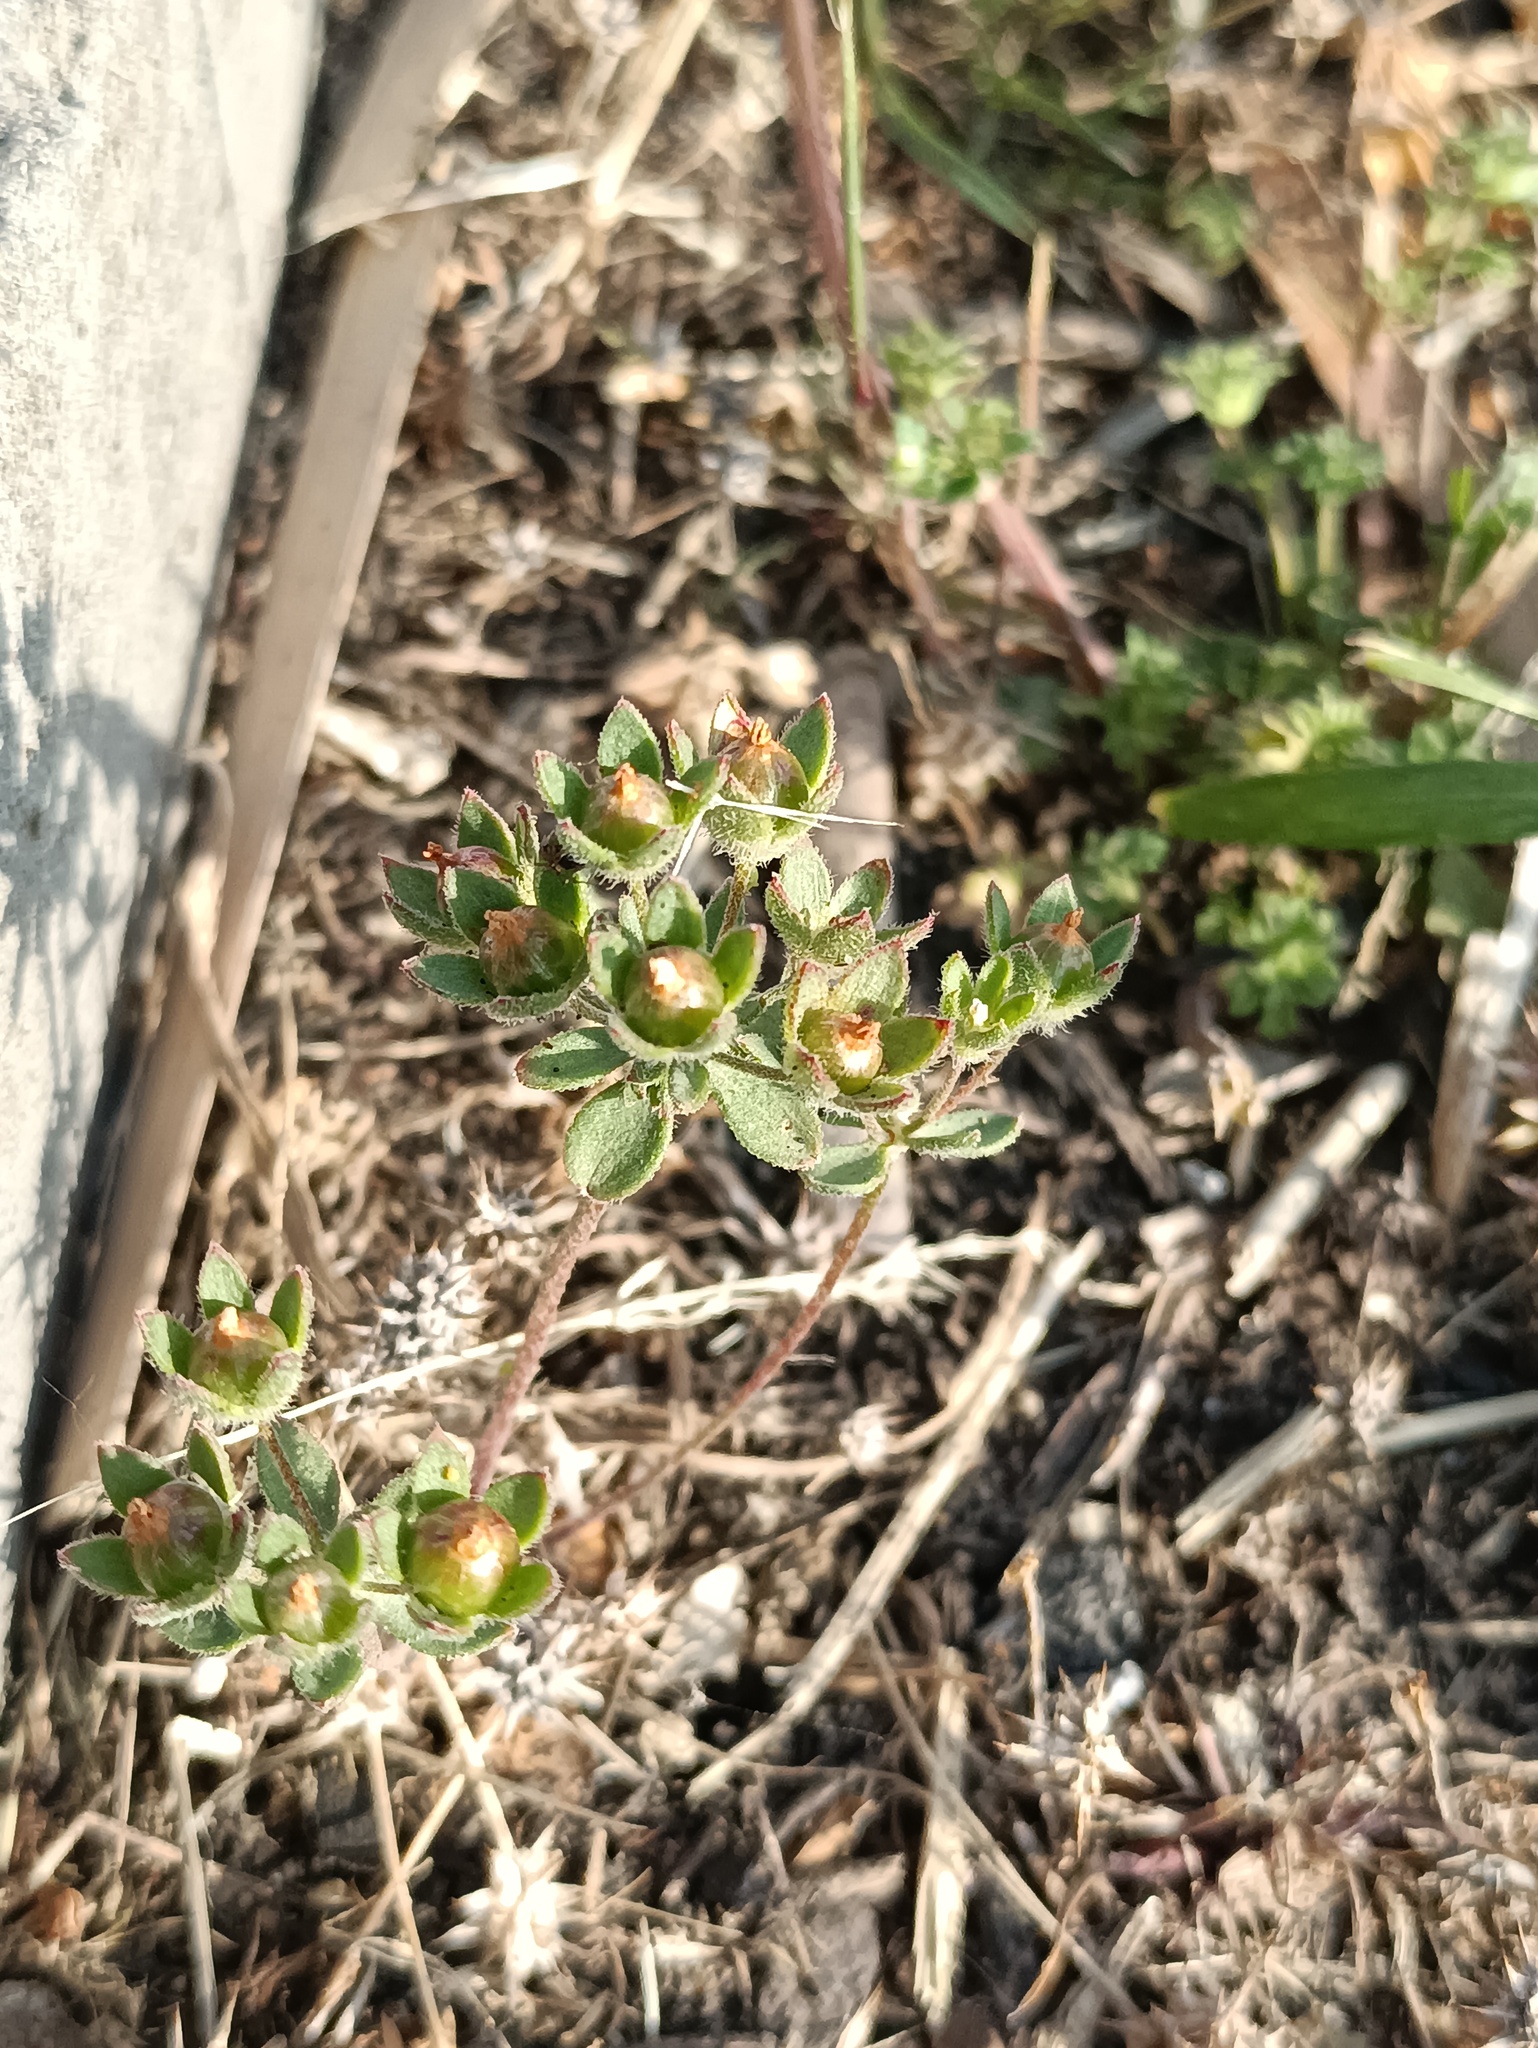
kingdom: Plantae
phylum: Tracheophyta
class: Magnoliopsida
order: Ericales
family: Primulaceae
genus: Androsace
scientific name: Androsace maxima
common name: Annual androsace
